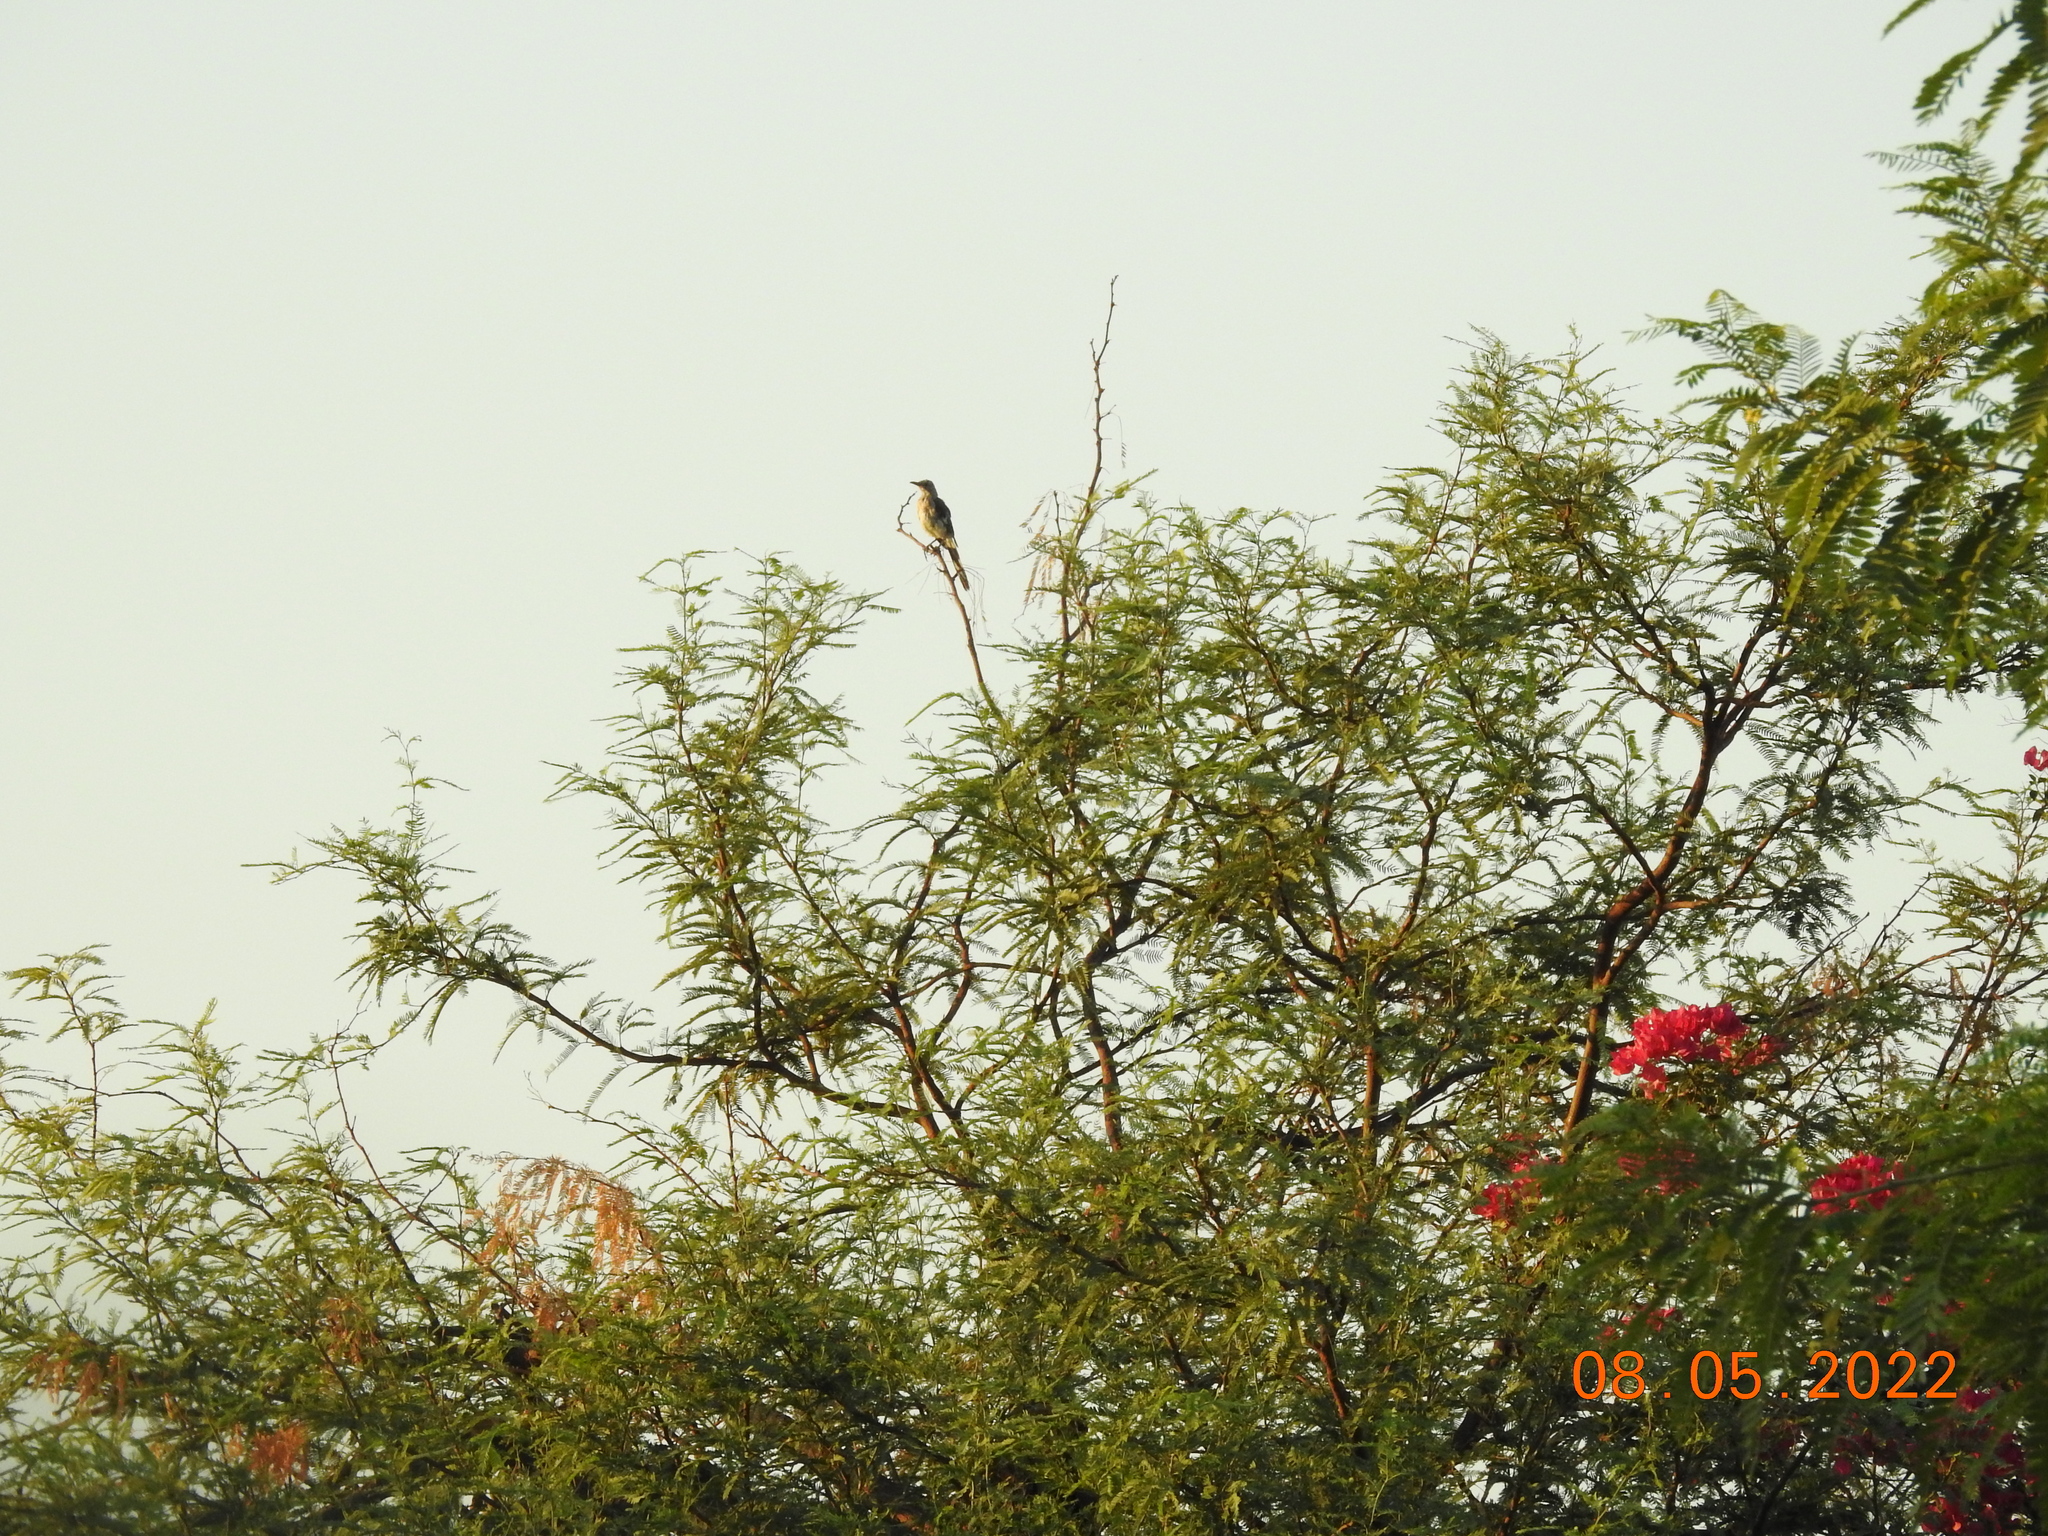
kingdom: Animalia
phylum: Chordata
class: Aves
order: Passeriformes
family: Mimidae
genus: Mimus
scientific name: Mimus polyglottos
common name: Northern mockingbird
